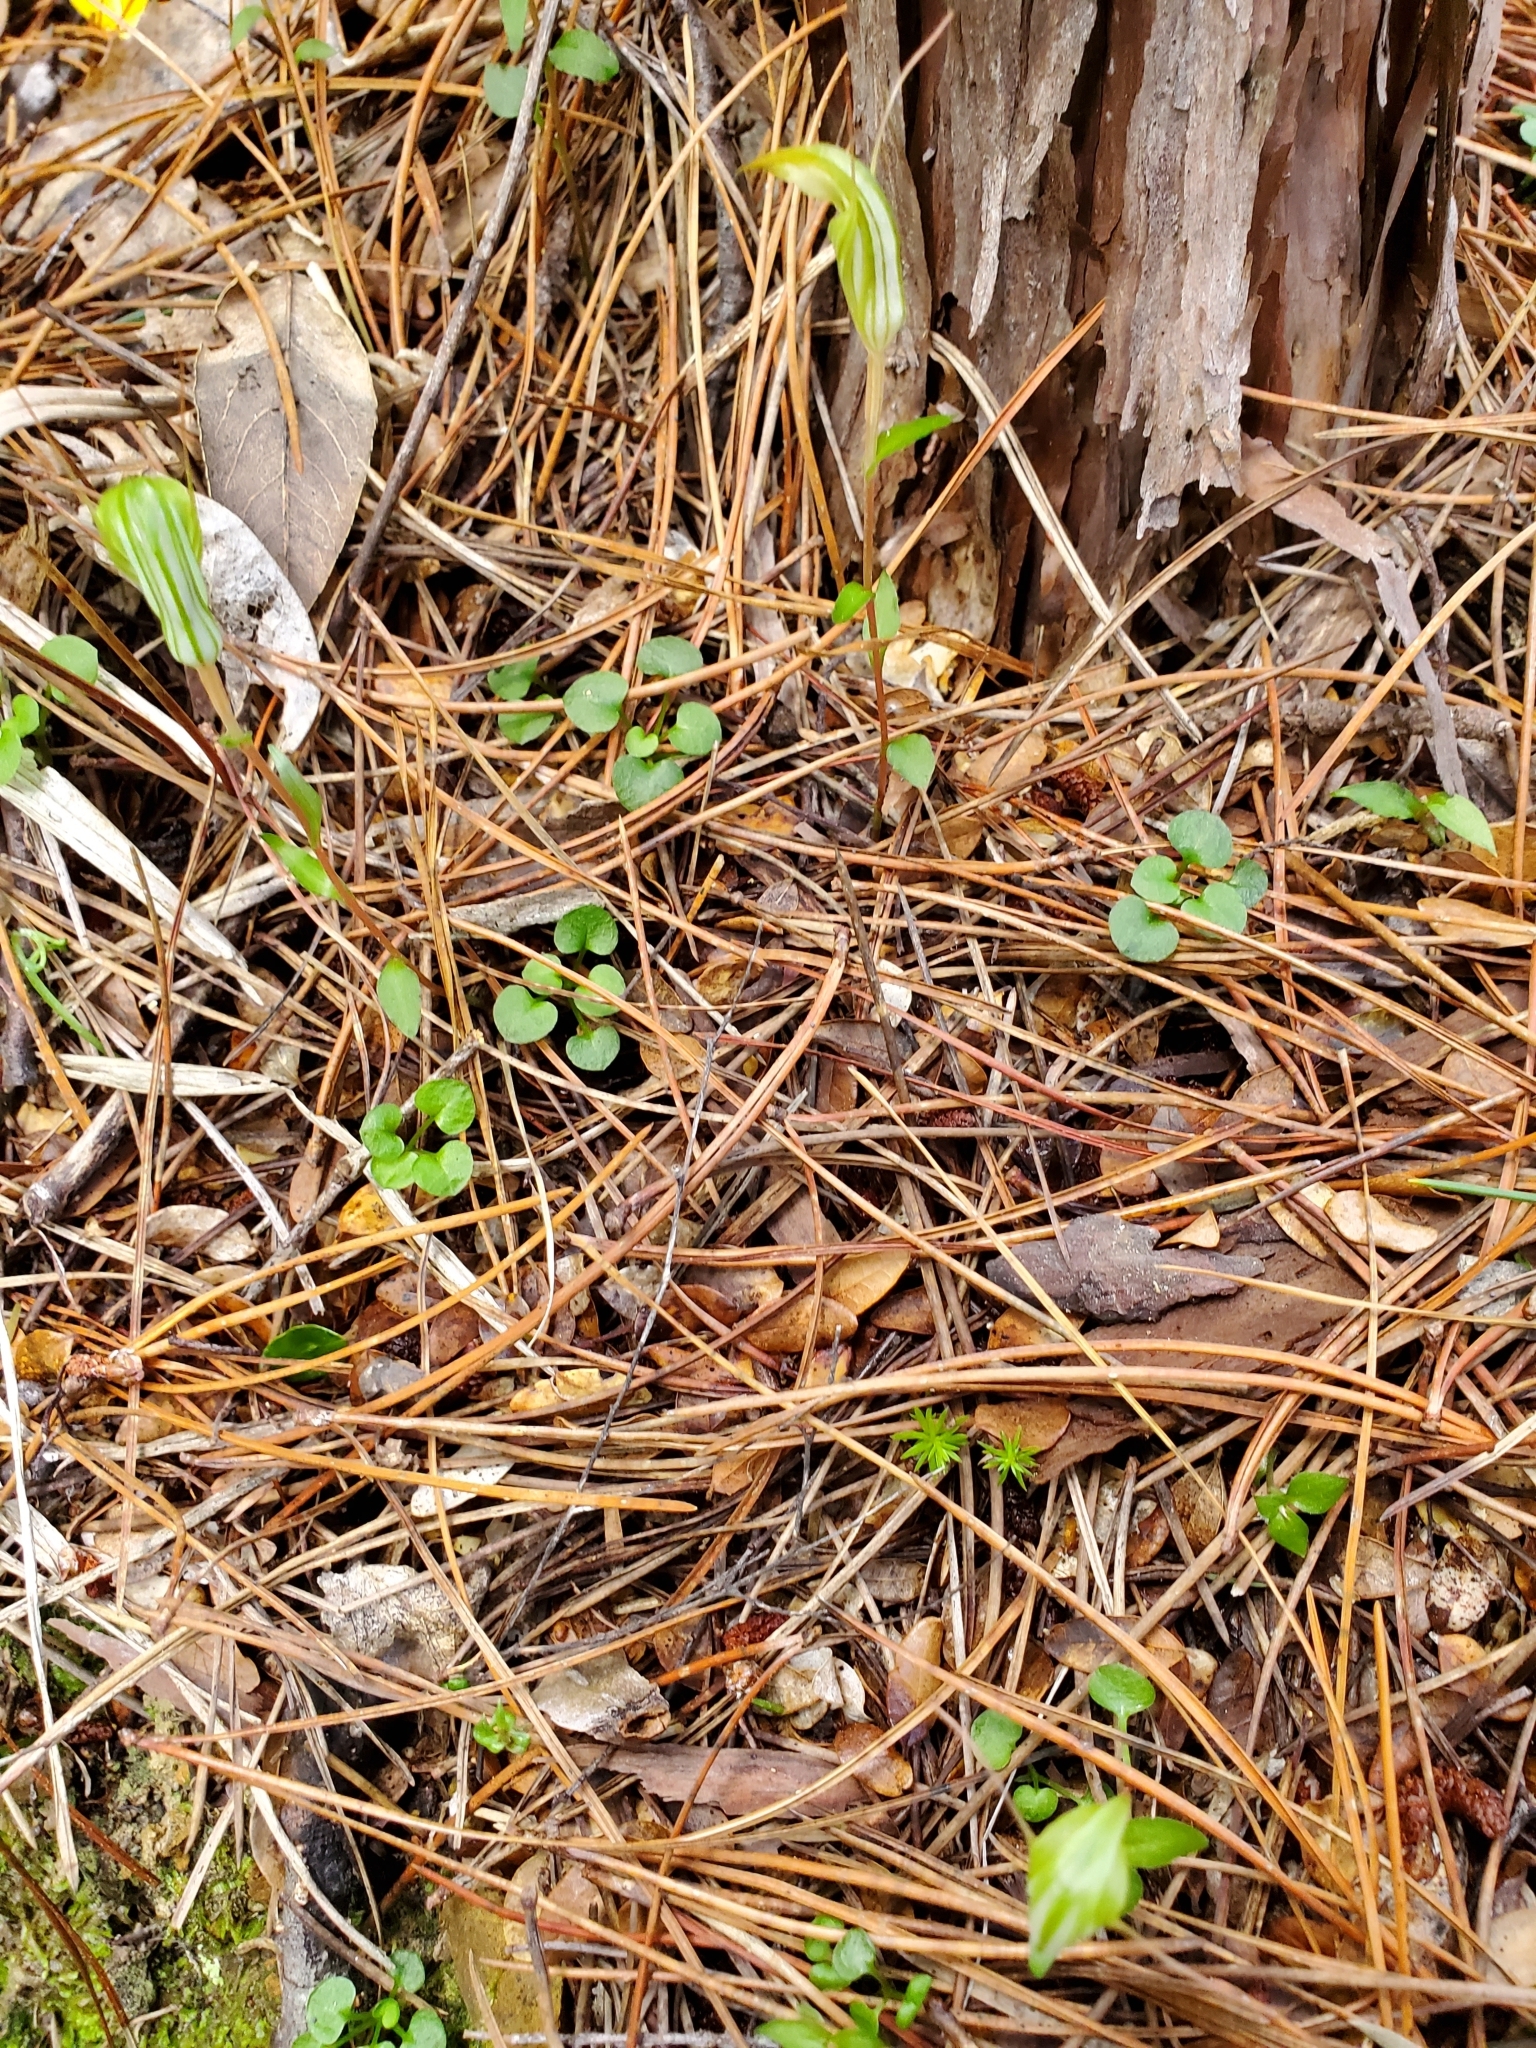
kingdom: Plantae
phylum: Tracheophyta
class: Liliopsida
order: Asparagales
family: Orchidaceae
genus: Pterostylis
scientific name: Pterostylis alobula
